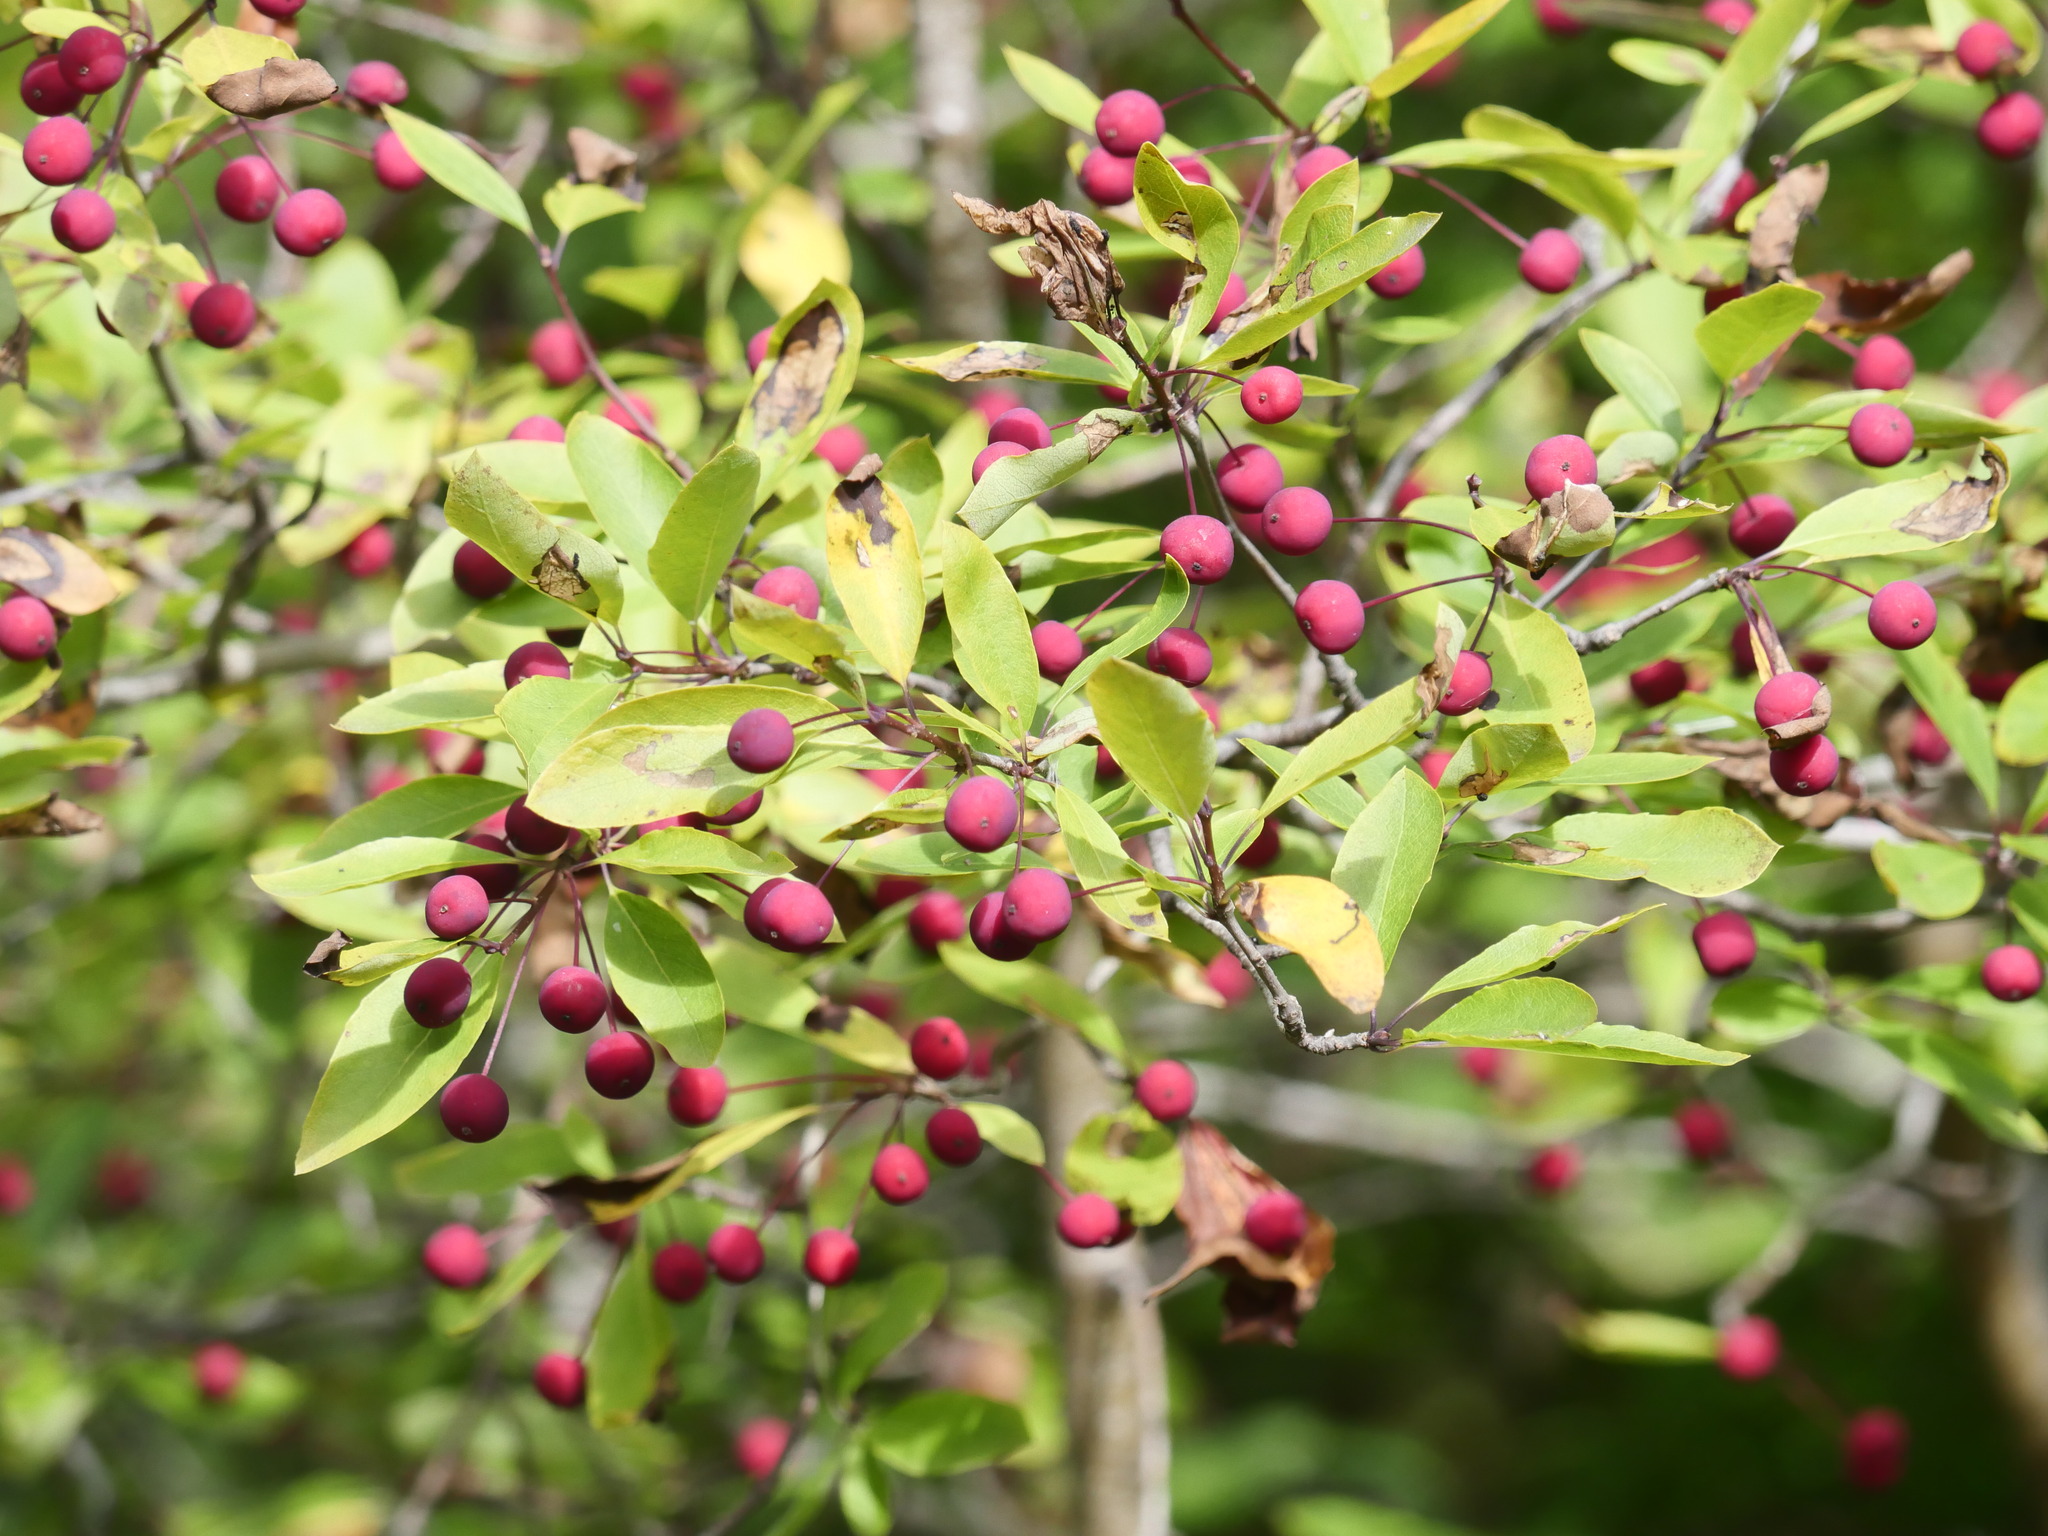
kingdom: Plantae
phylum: Tracheophyta
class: Magnoliopsida
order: Aquifoliales
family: Aquifoliaceae
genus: Ilex
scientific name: Ilex mucronata
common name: Catberry
